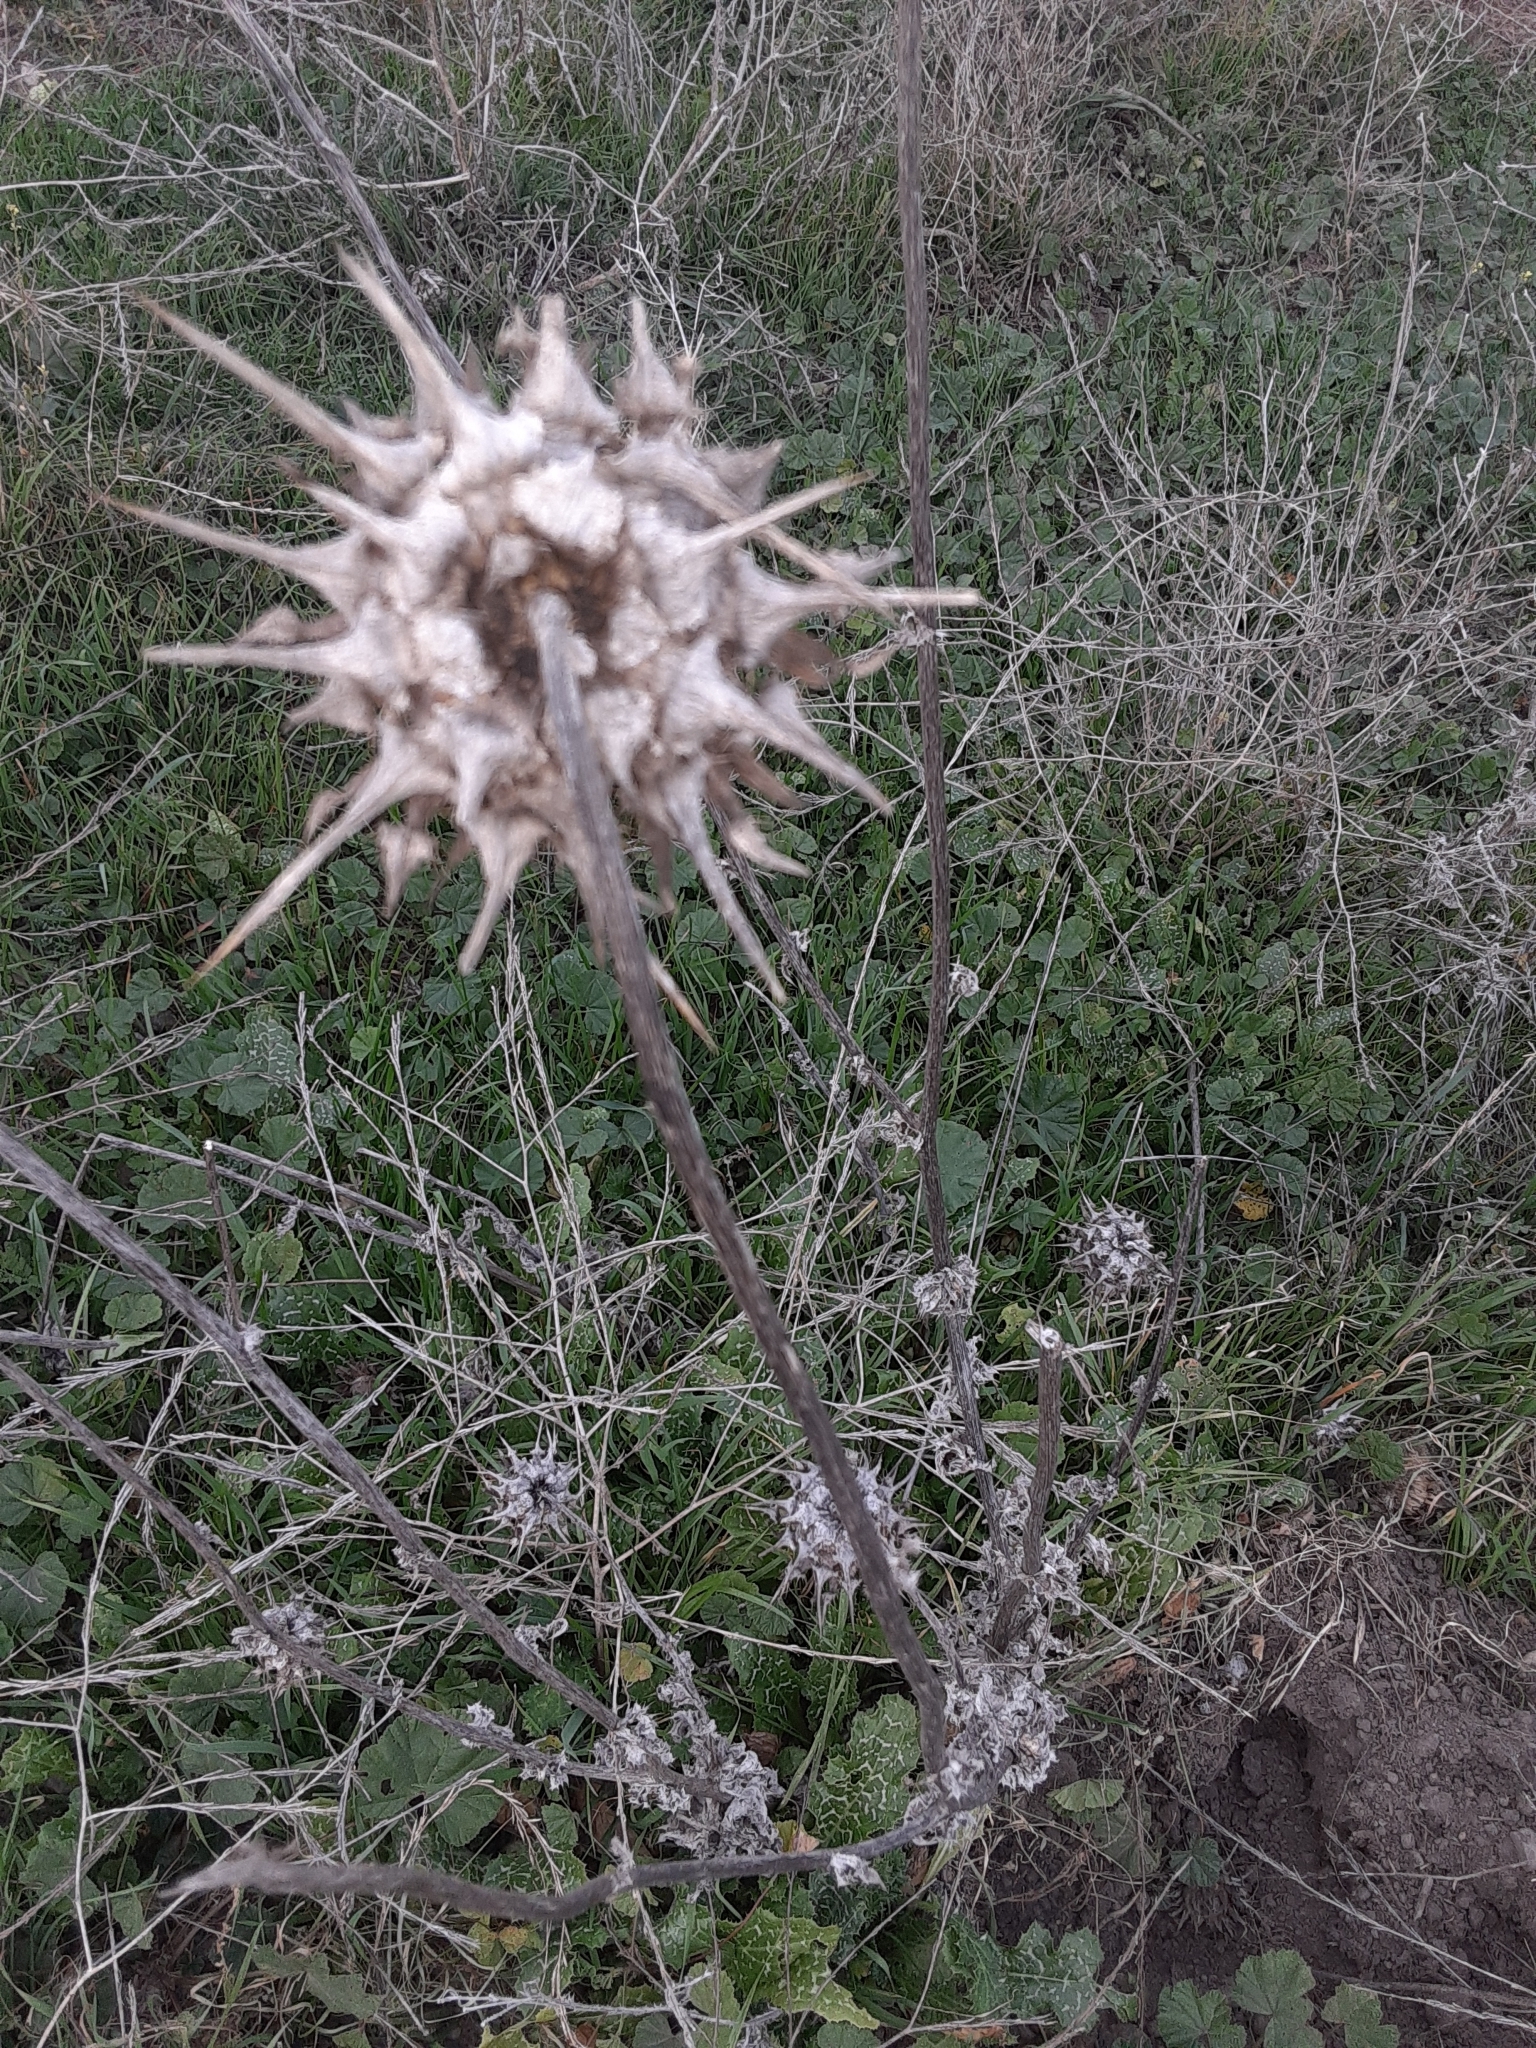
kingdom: Plantae
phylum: Tracheophyta
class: Magnoliopsida
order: Asterales
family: Asteraceae
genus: Silybum
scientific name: Silybum marianum
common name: Milk thistle
